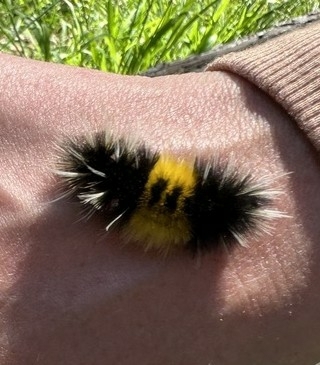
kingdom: Animalia
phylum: Arthropoda
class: Insecta
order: Lepidoptera
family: Erebidae
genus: Lophocampa
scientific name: Lophocampa maculata
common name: Spotted tussock moth
